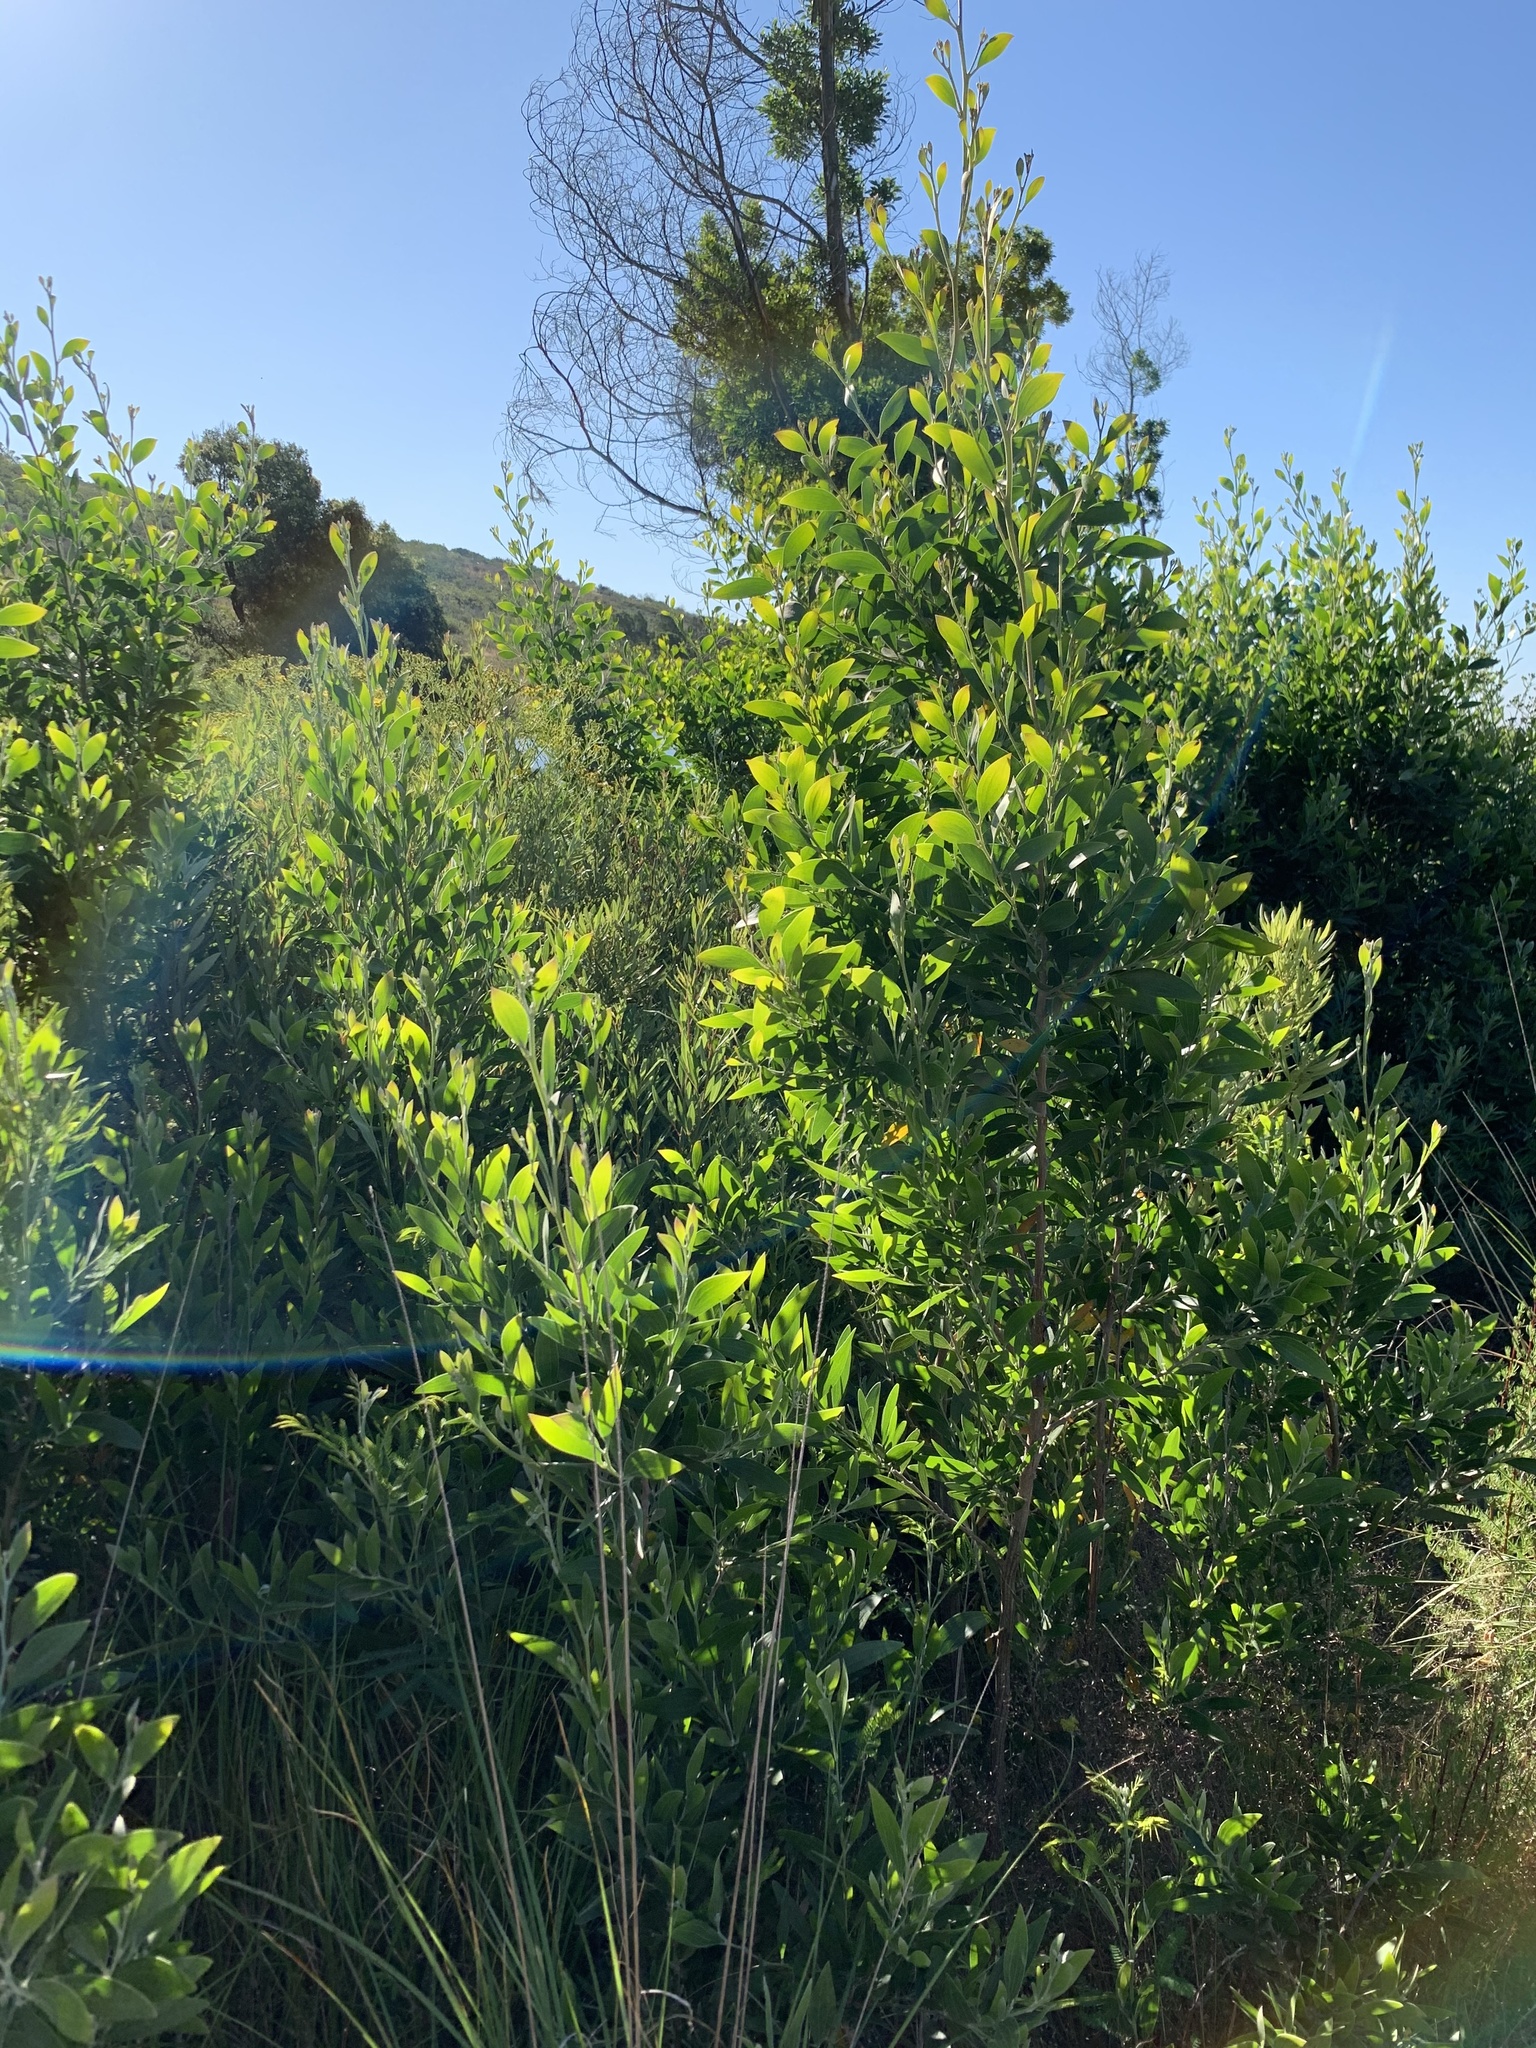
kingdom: Plantae
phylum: Tracheophyta
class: Magnoliopsida
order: Fabales
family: Fabaceae
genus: Acacia
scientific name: Acacia melanoxylon
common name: Blackwood
